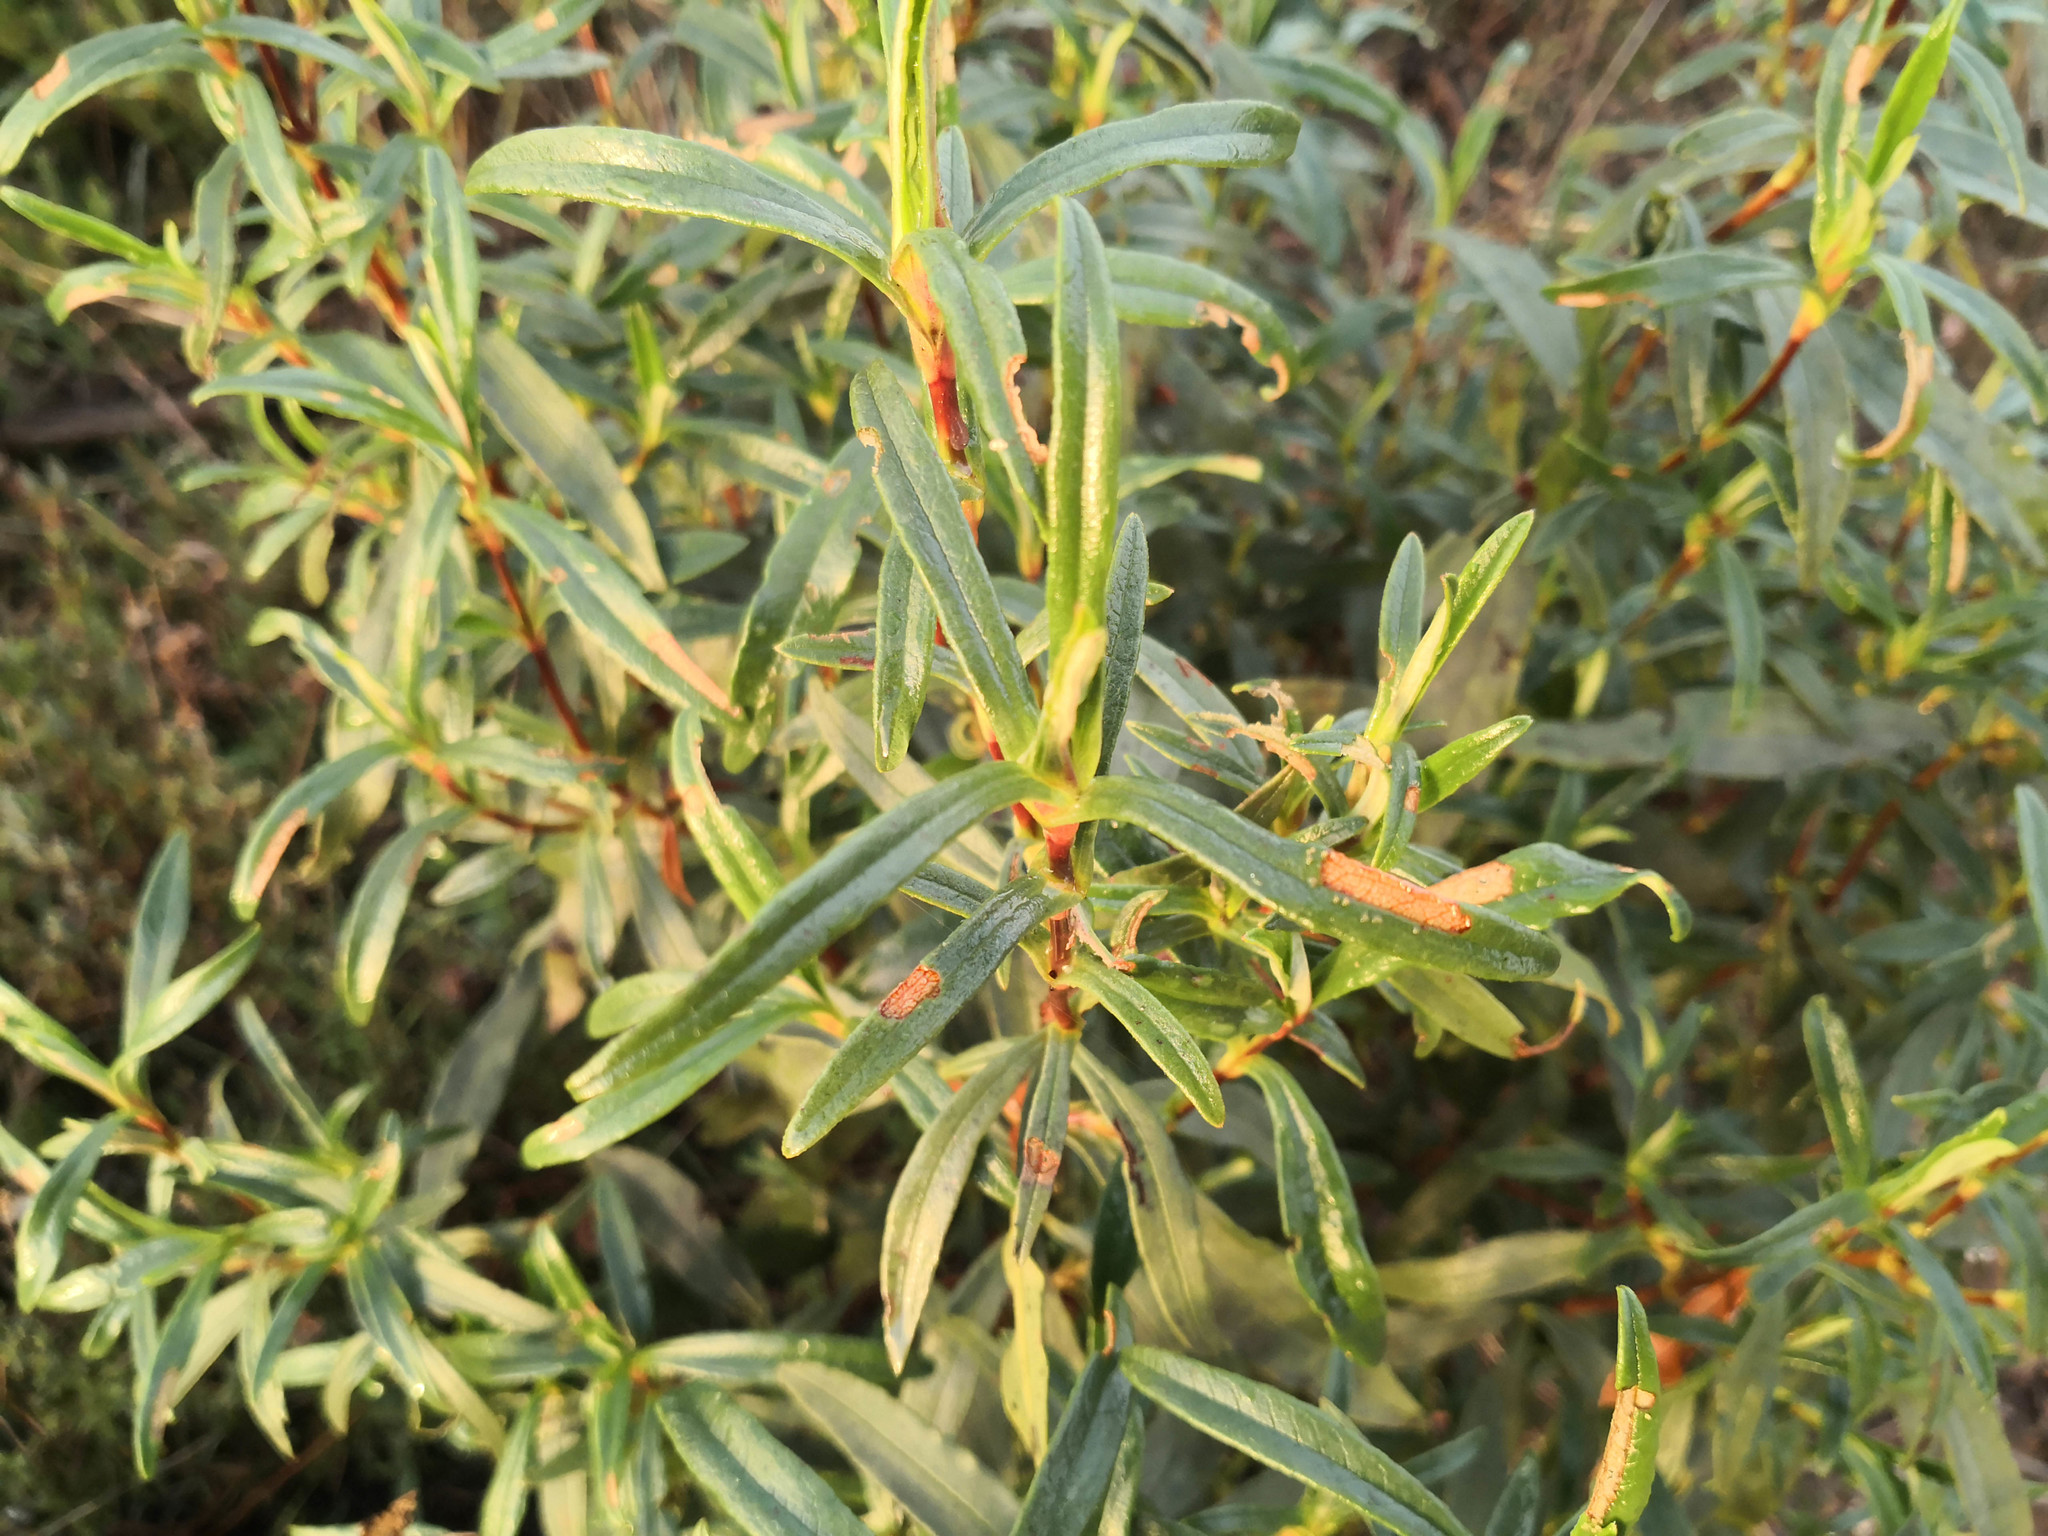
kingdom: Plantae
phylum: Tracheophyta
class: Magnoliopsida
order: Malvales
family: Cistaceae
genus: Cistus
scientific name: Cistus ladanifer
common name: Common gum cistus
